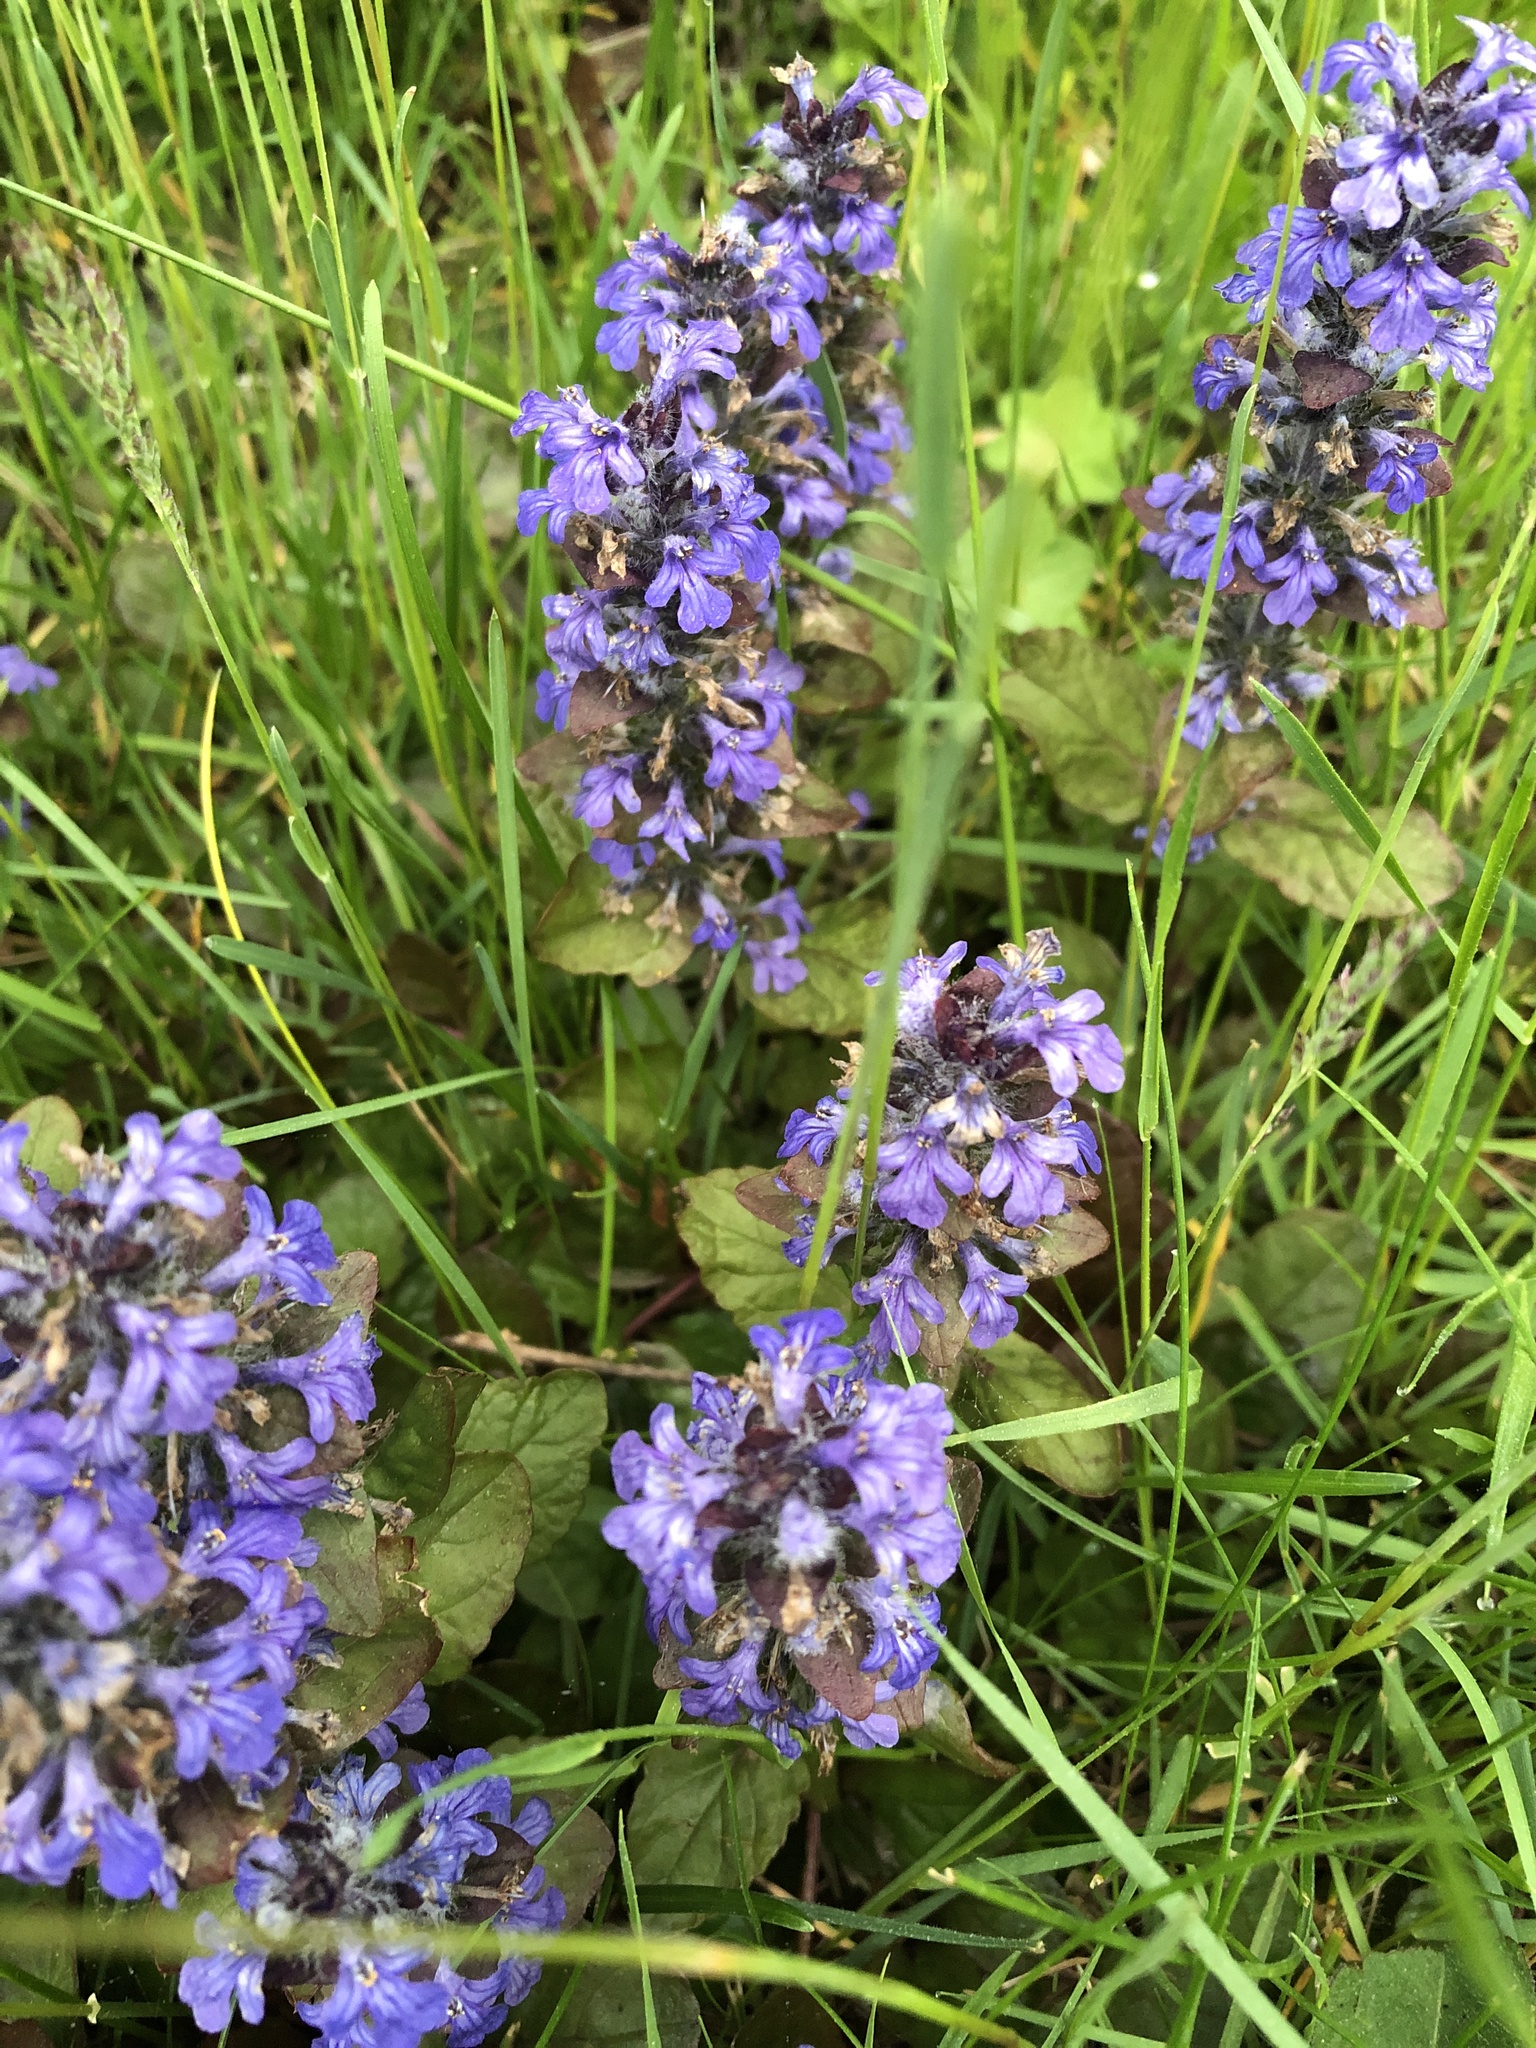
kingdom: Plantae
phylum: Tracheophyta
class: Magnoliopsida
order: Lamiales
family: Lamiaceae
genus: Ajuga
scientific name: Ajuga reptans
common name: Bugle
